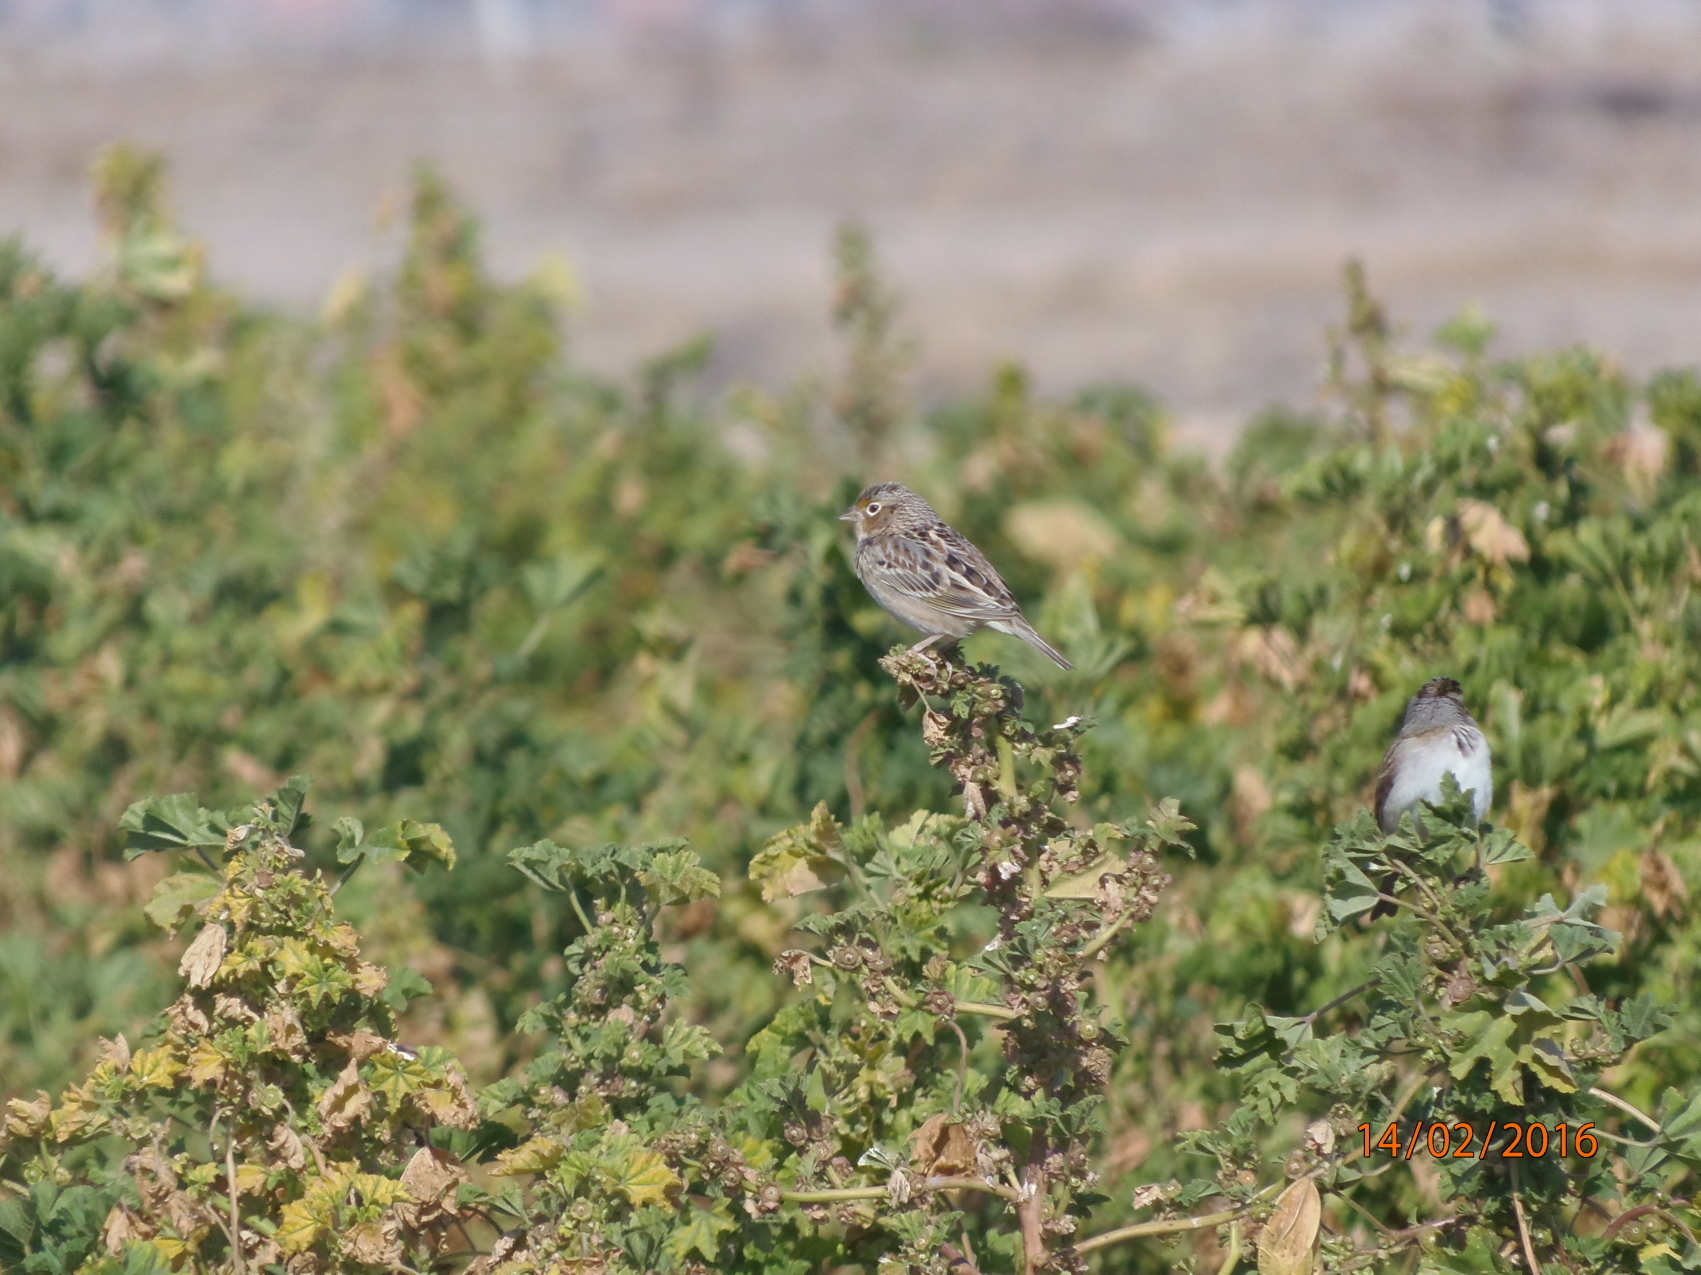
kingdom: Animalia
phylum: Chordata
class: Aves
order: Passeriformes
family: Passerellidae
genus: Ammodramus
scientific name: Ammodramus savannarum
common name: Grasshopper sparrow
